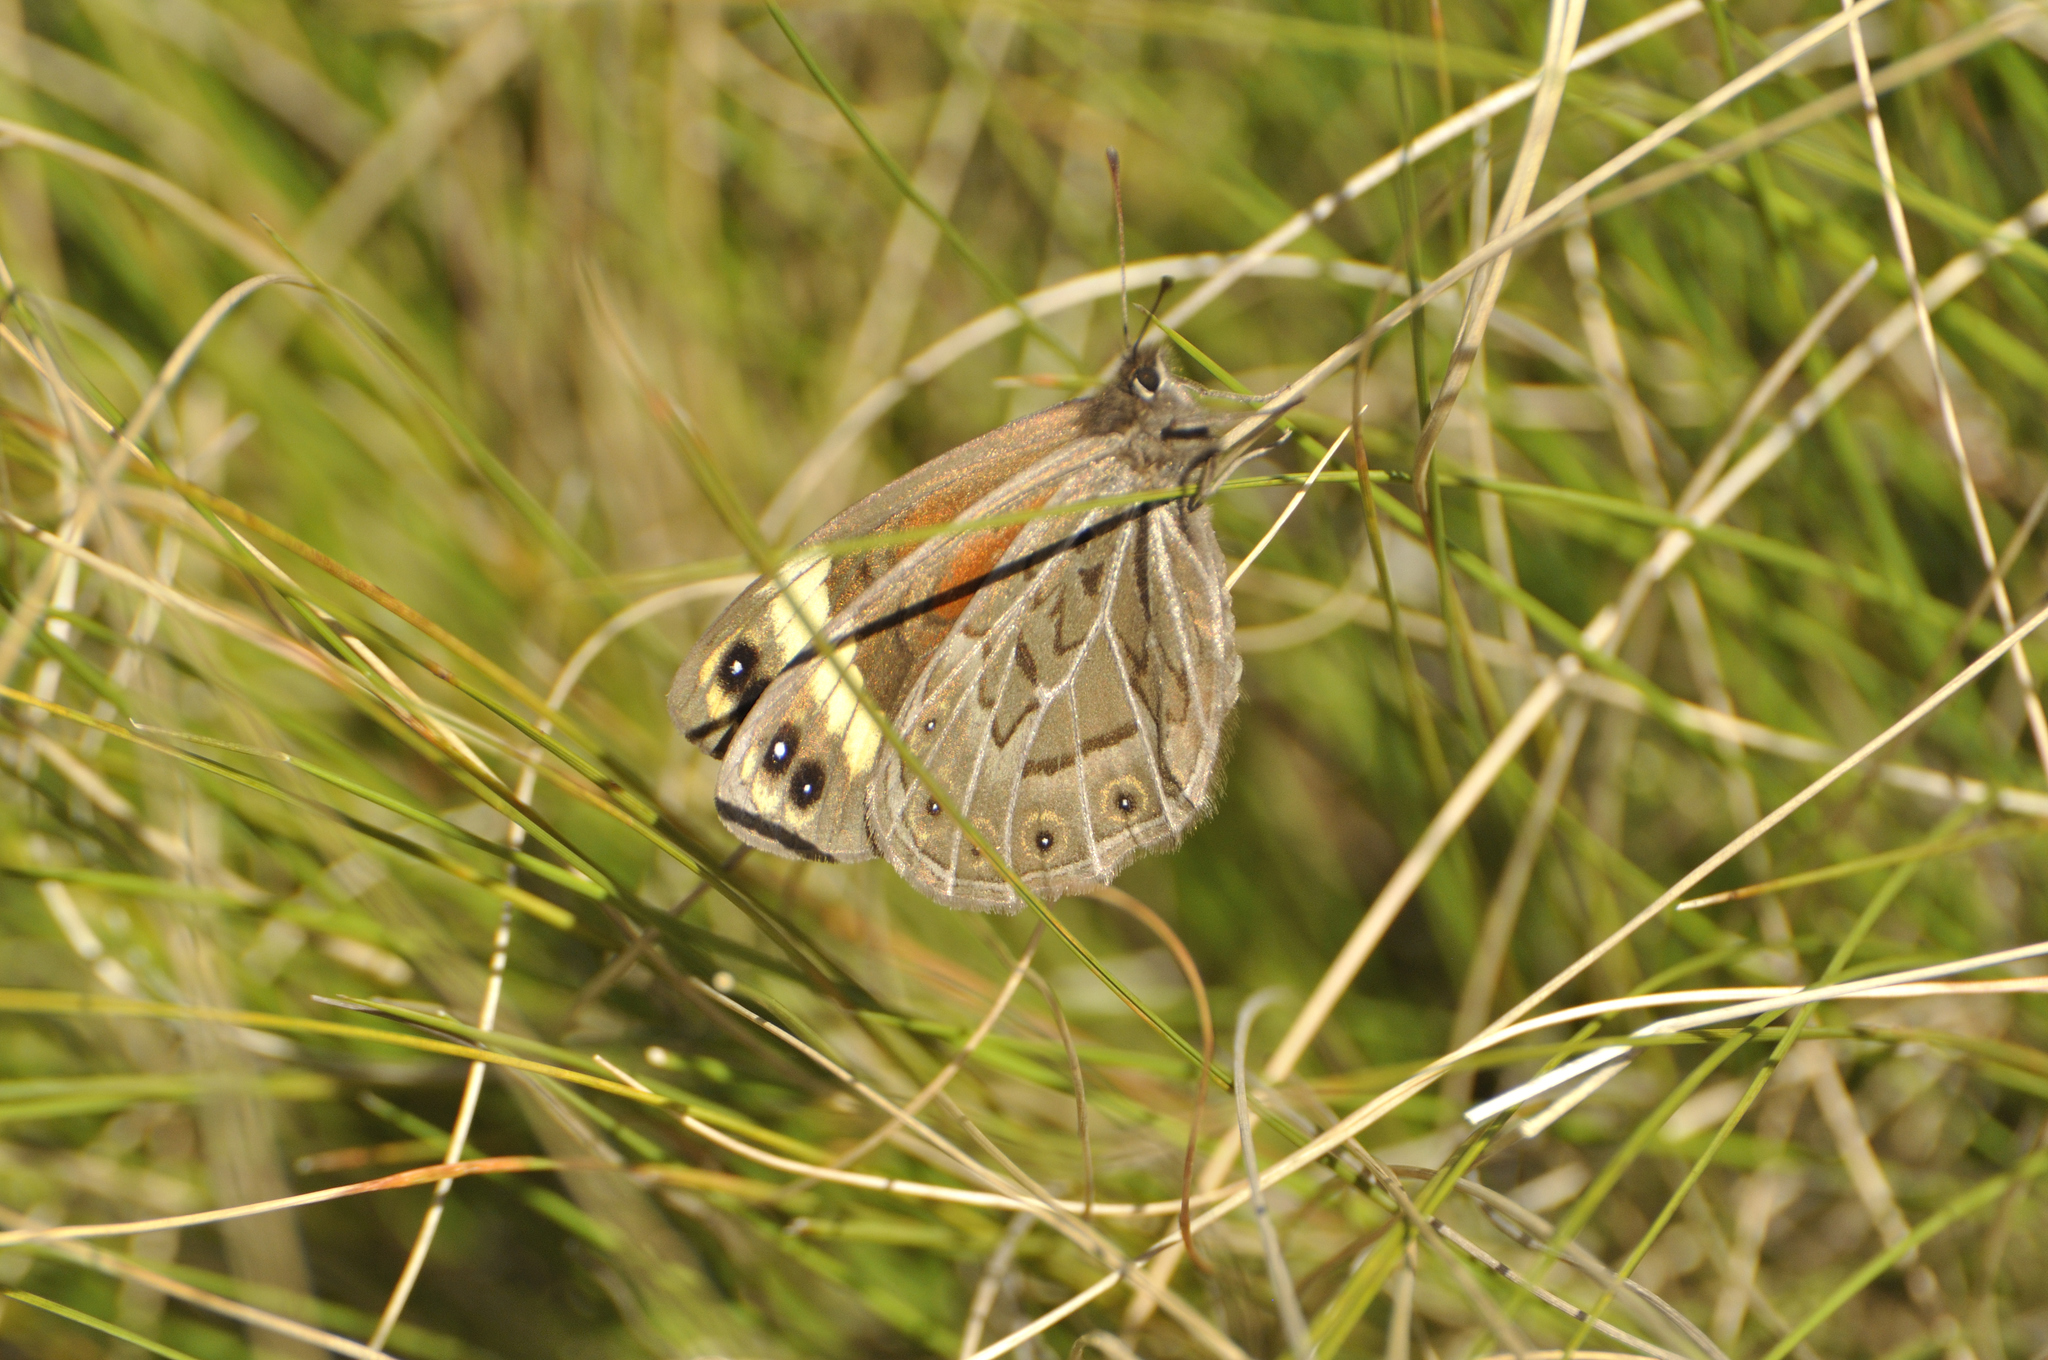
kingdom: Animalia
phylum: Arthropoda
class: Insecta
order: Lepidoptera
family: Nymphalidae
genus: Torynesis
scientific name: Torynesis hawequas
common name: Hawequas widow
